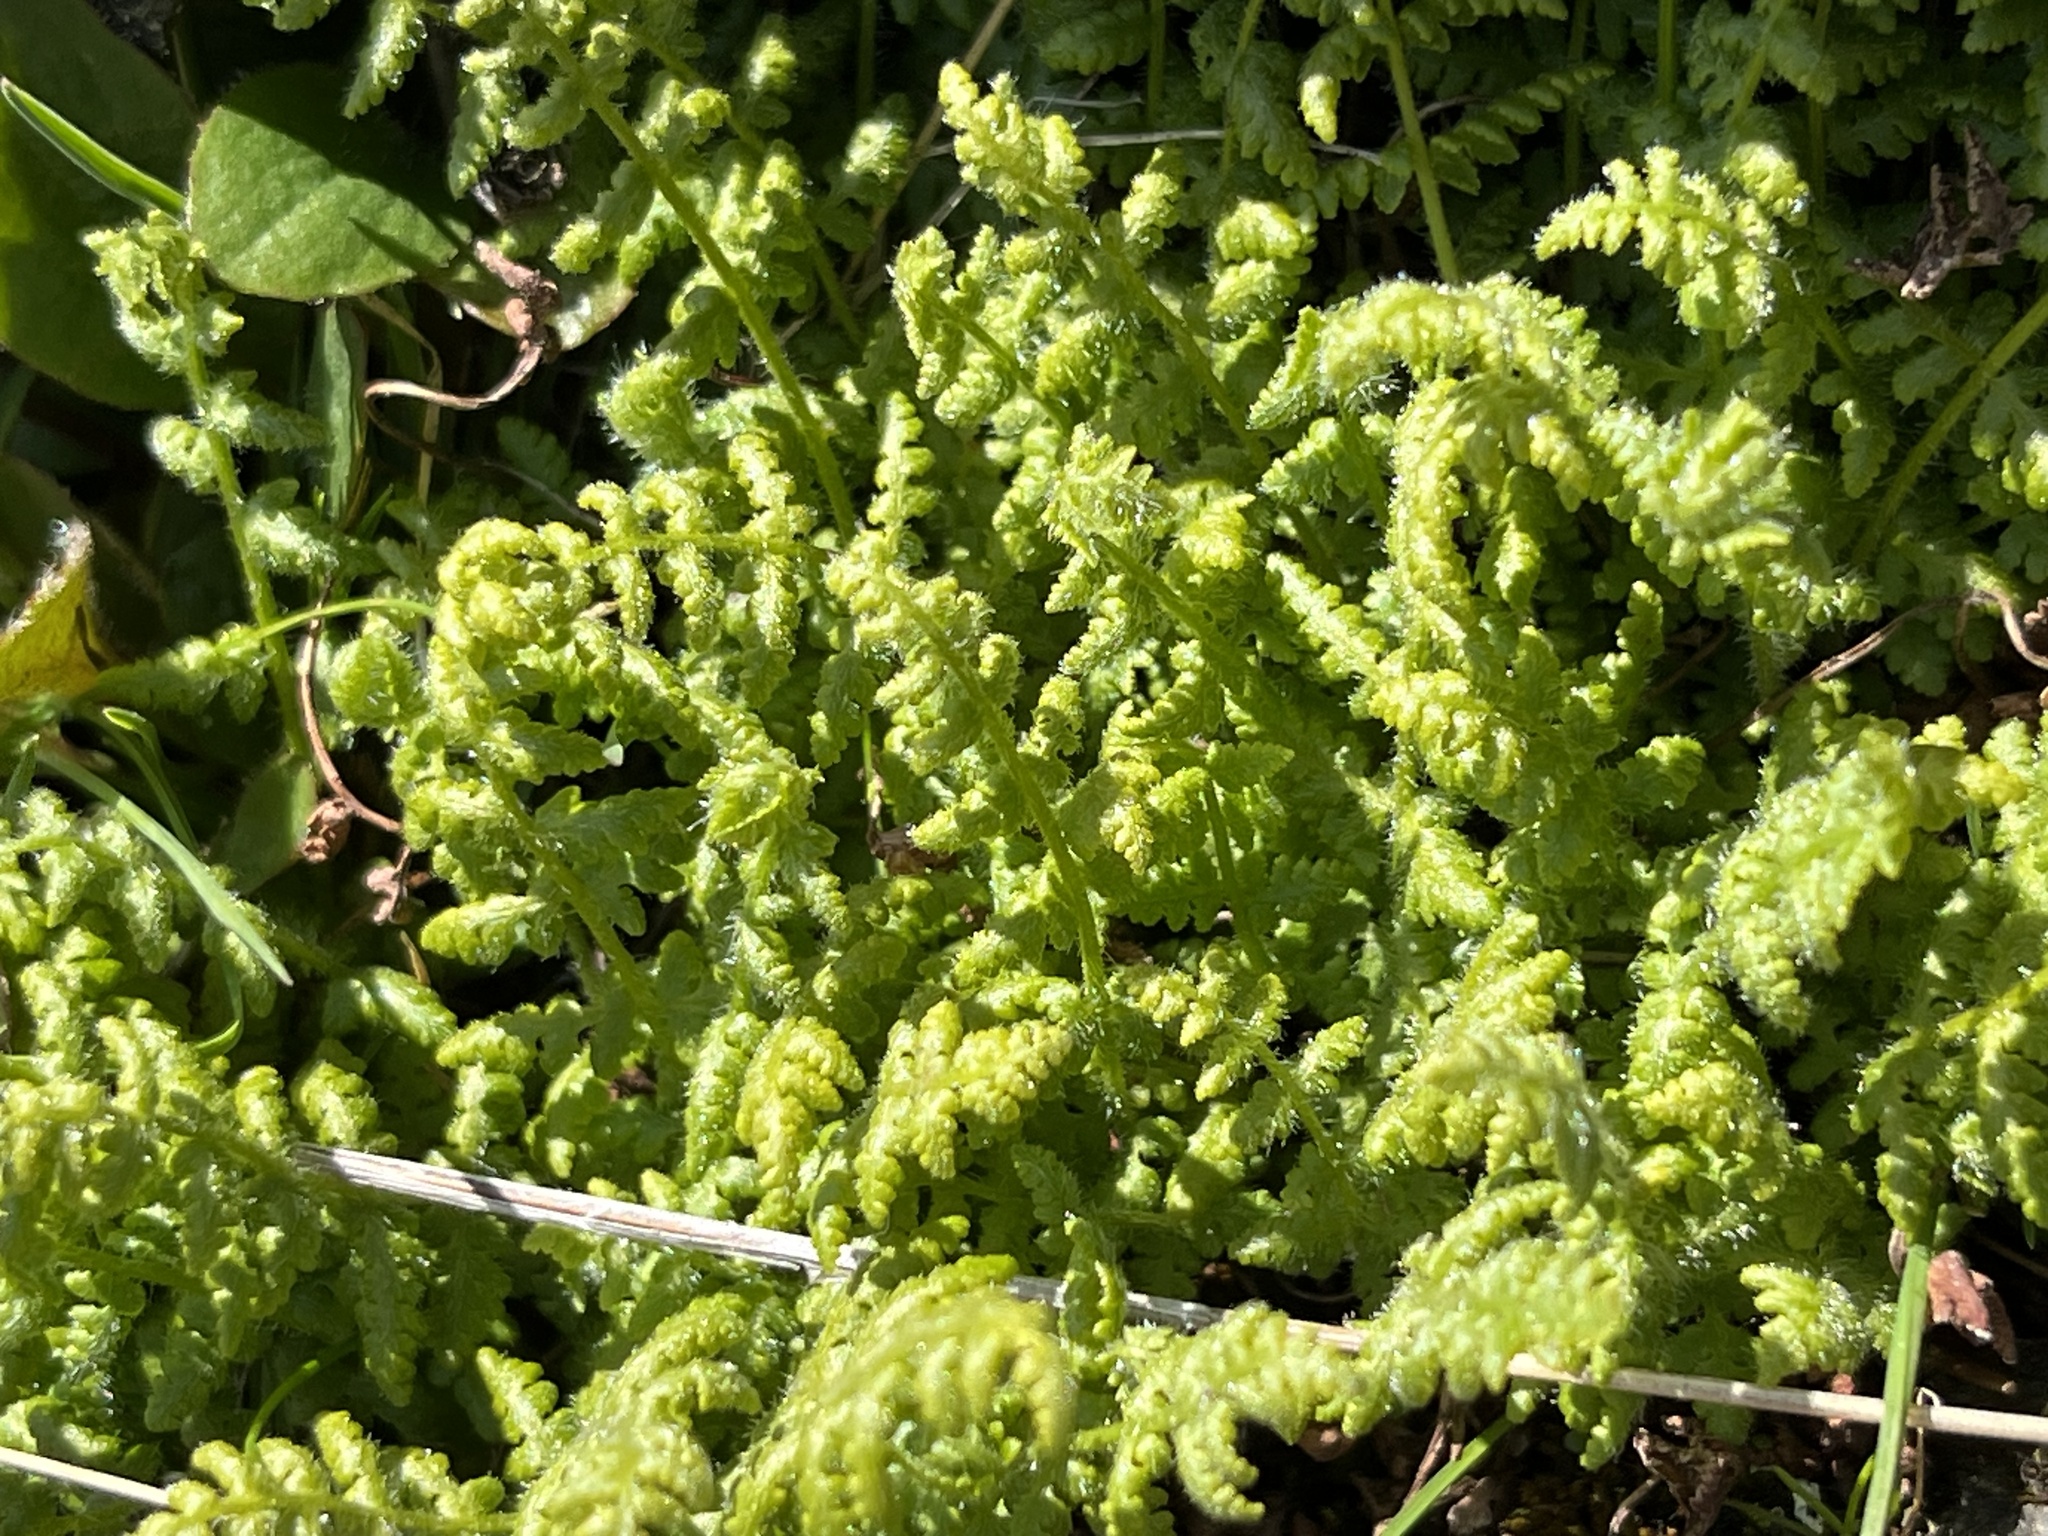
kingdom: Plantae
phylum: Tracheophyta
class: Polypodiopsida
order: Polypodiales
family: Woodsiaceae
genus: Physematium
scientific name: Physematium scopulinum
